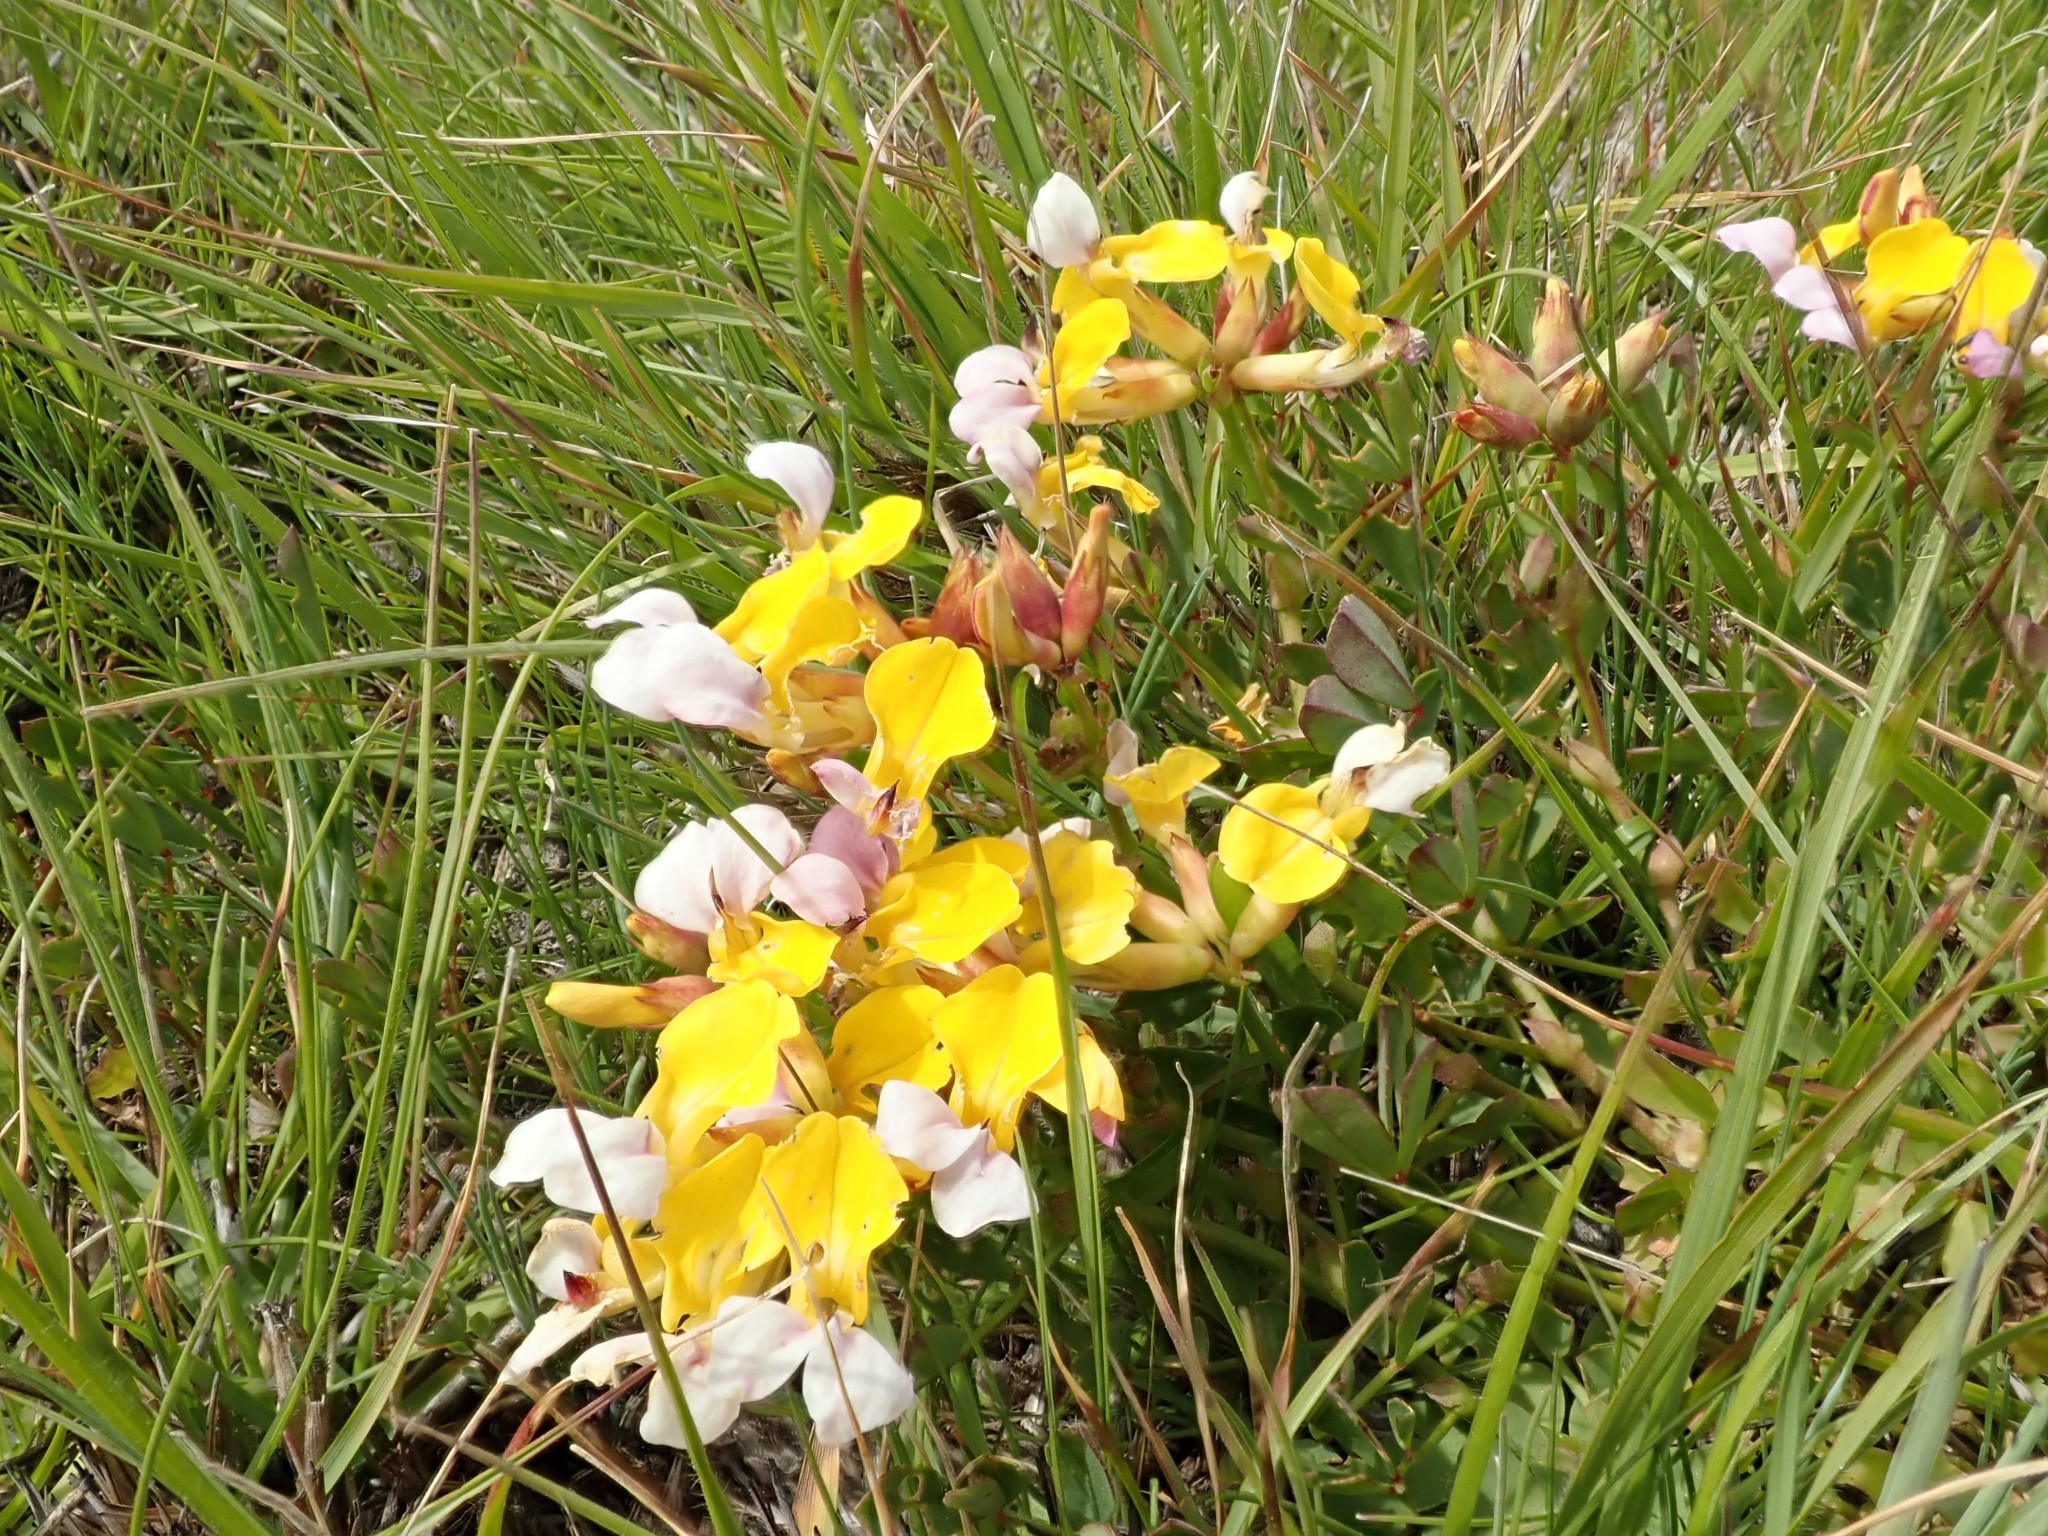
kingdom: Plantae
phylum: Tracheophyta
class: Magnoliopsida
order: Fabales
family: Fabaceae
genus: Hosackia
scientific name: Hosackia gracilis
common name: Seaside bird's-foot lotus
